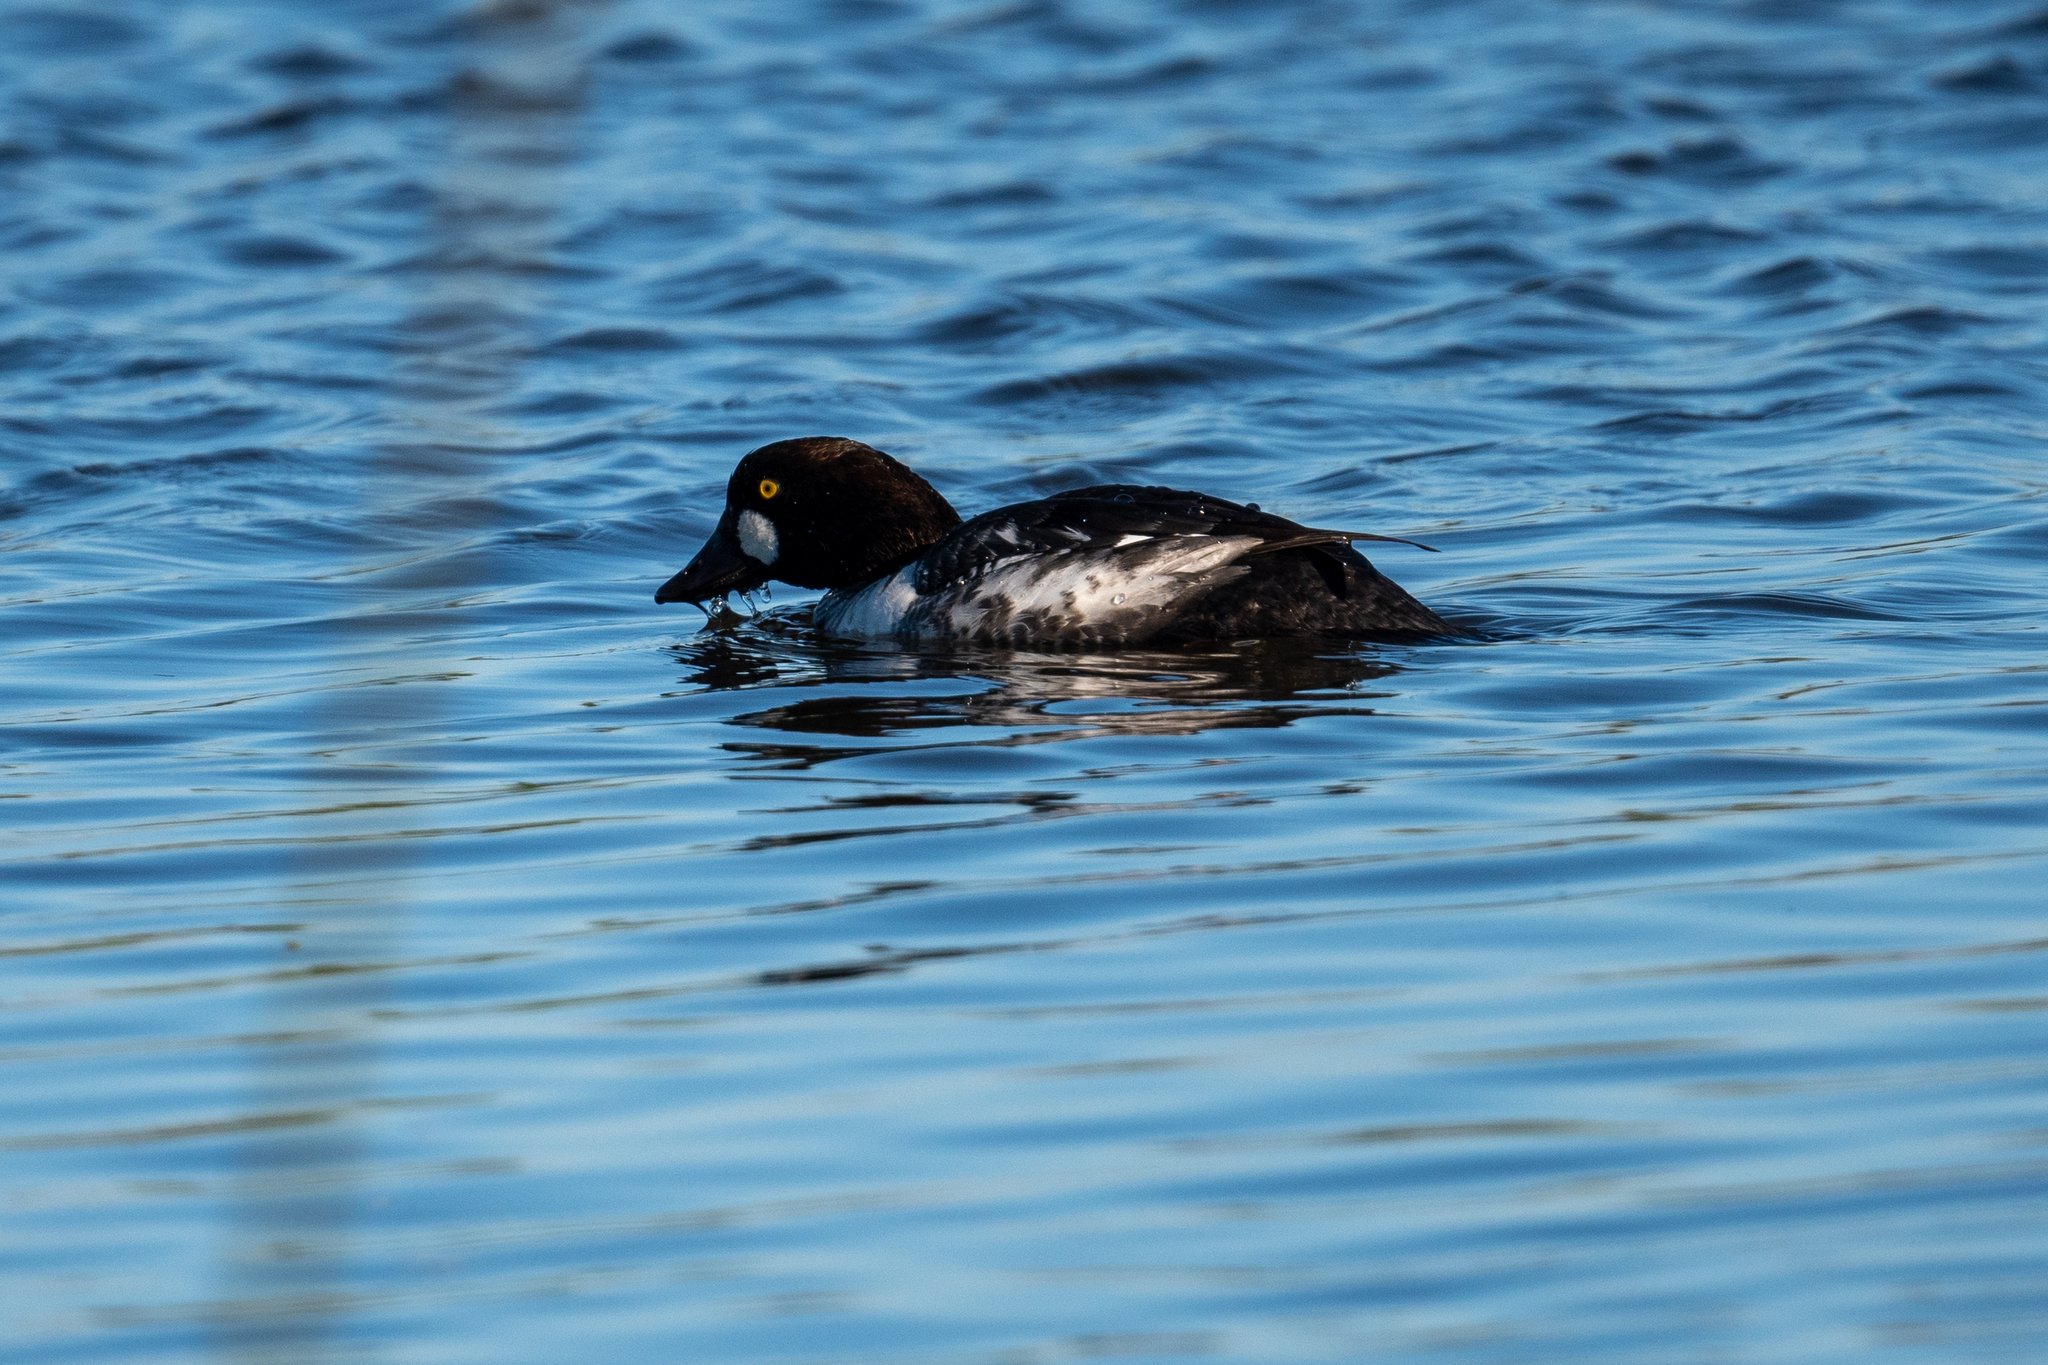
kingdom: Animalia
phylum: Chordata
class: Aves
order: Anseriformes
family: Anatidae
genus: Bucephala
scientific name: Bucephala clangula
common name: Common goldeneye
